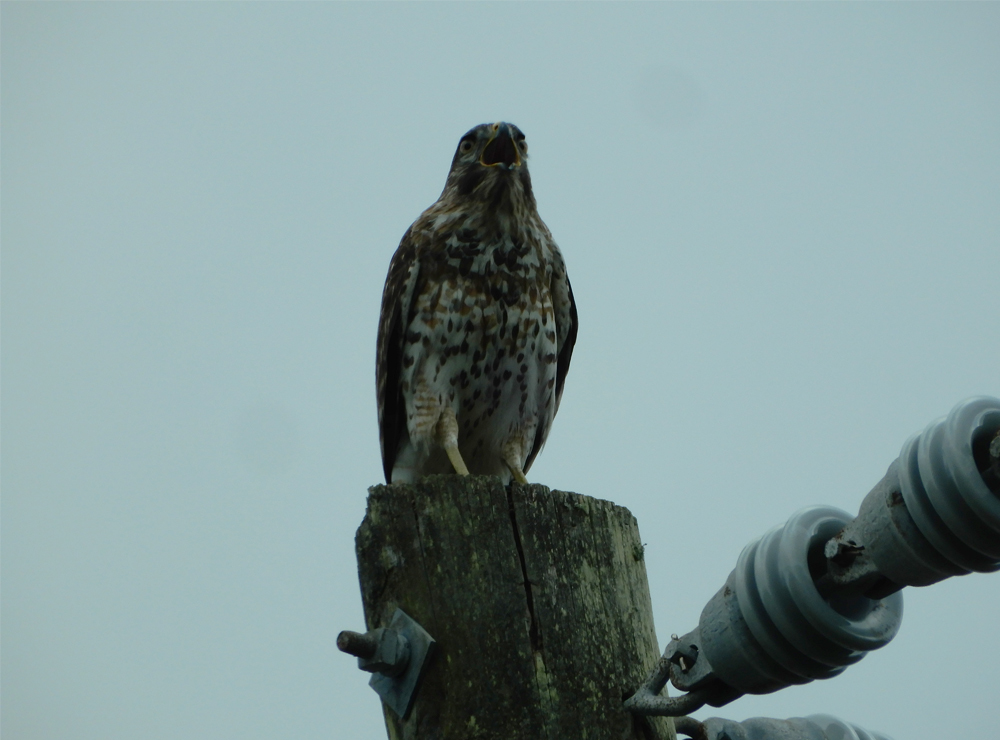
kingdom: Animalia
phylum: Chordata
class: Aves
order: Accipitriformes
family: Accipitridae
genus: Buteo
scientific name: Buteo lineatus
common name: Red-shouldered hawk
